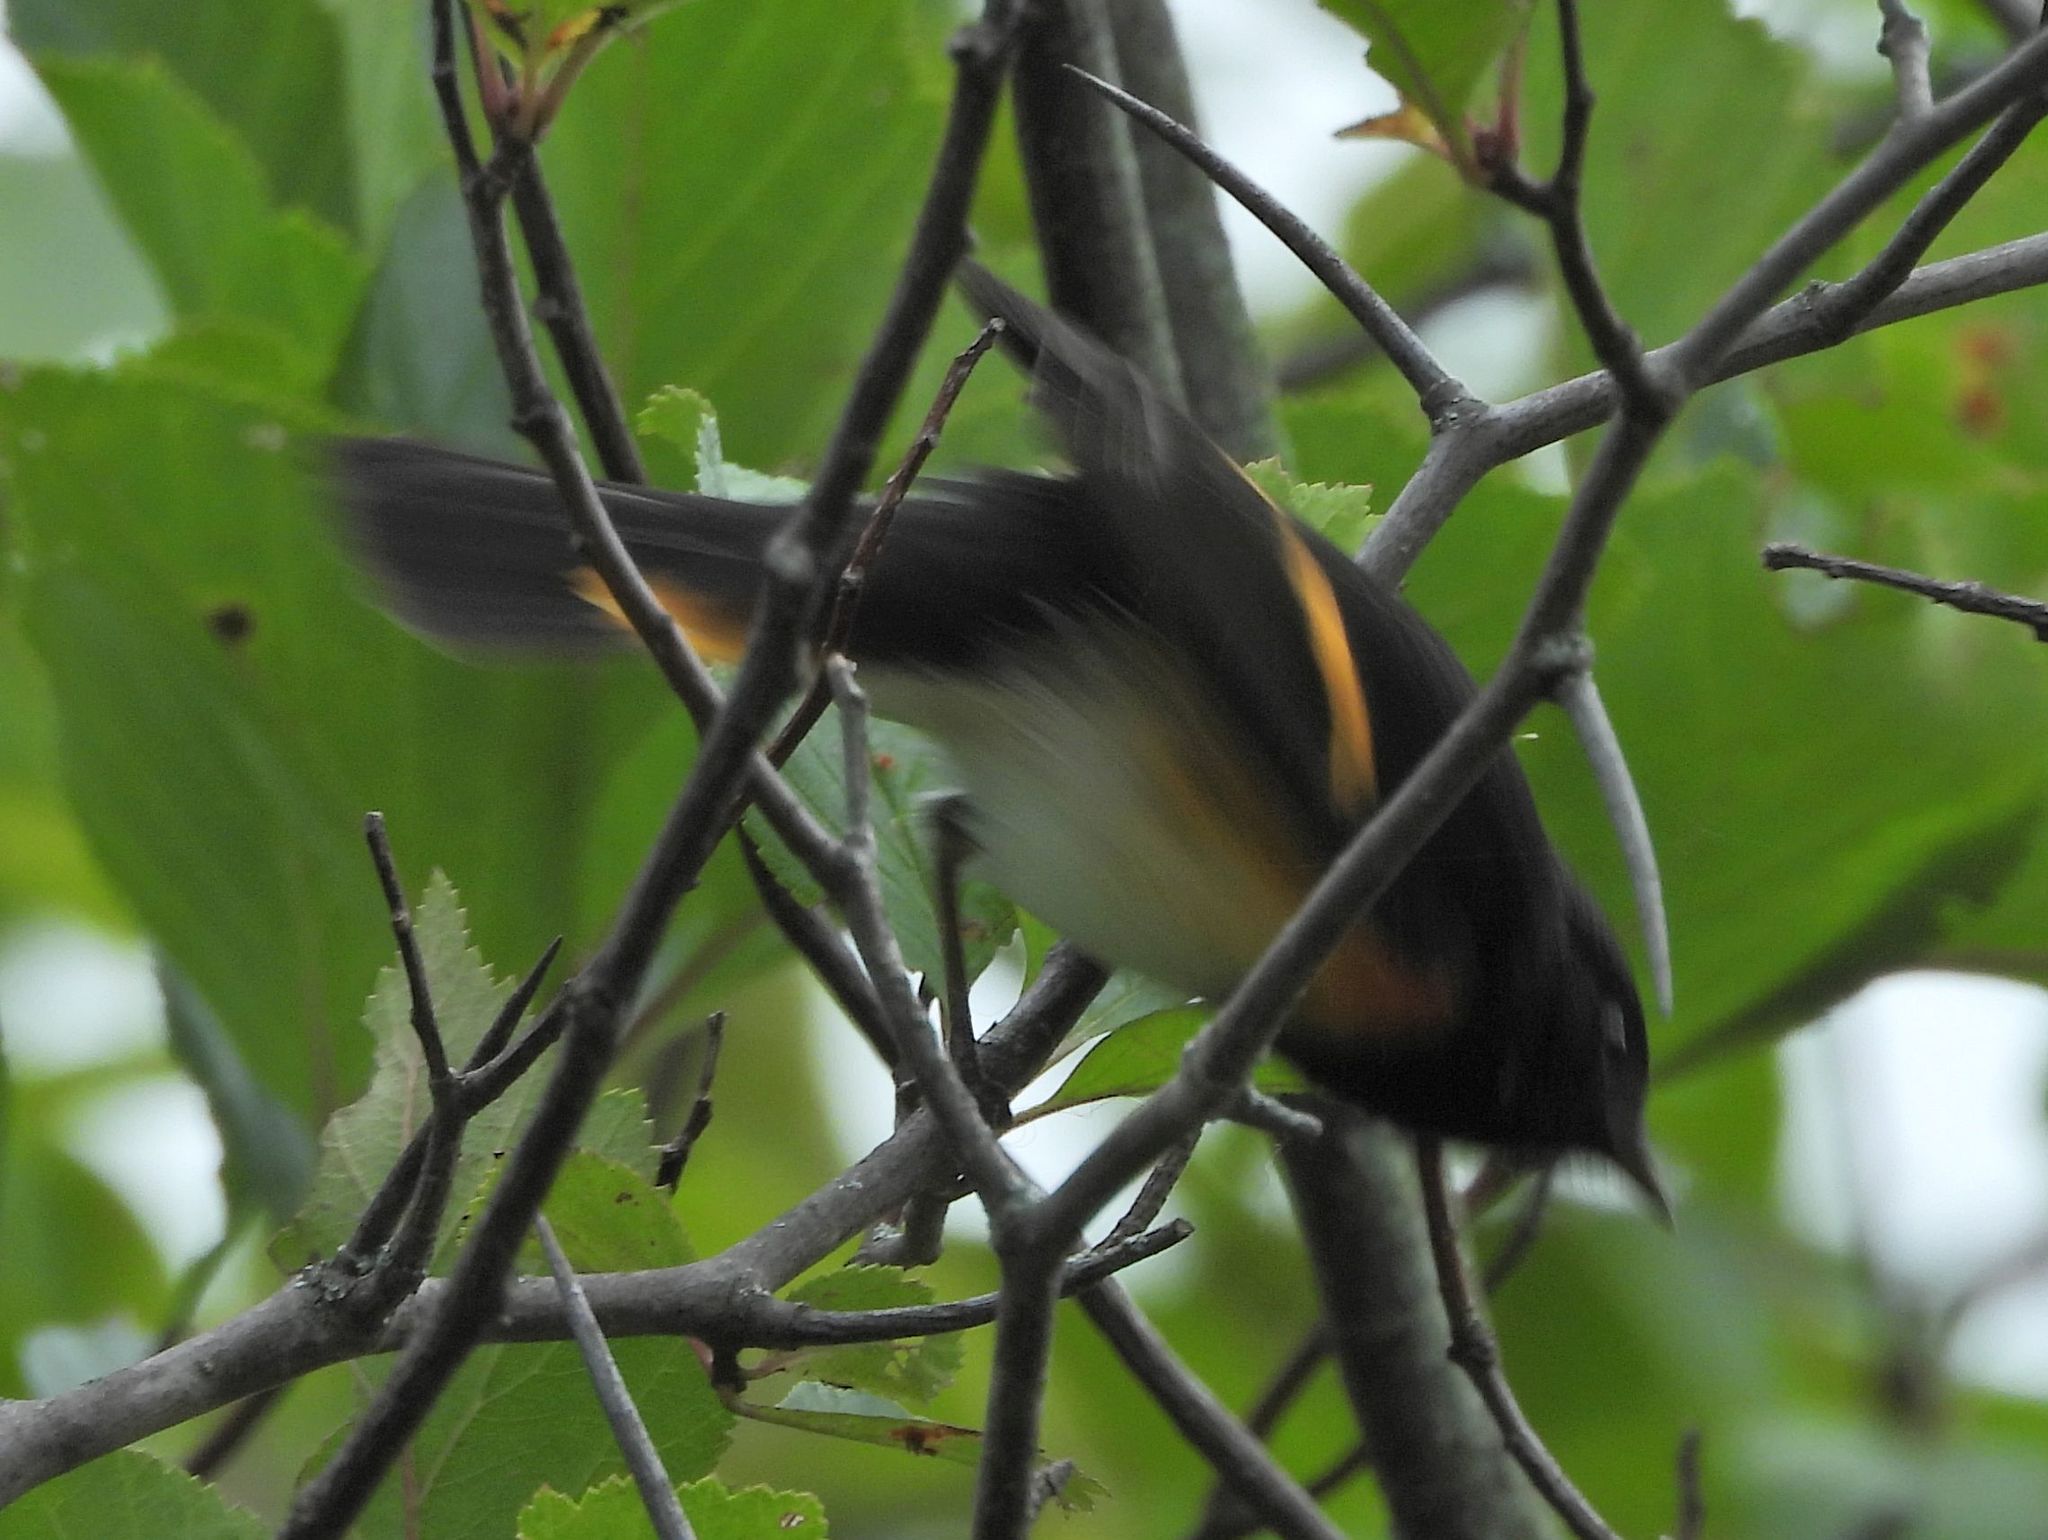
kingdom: Animalia
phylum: Chordata
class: Aves
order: Passeriformes
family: Parulidae
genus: Setophaga
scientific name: Setophaga ruticilla
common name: American redstart
